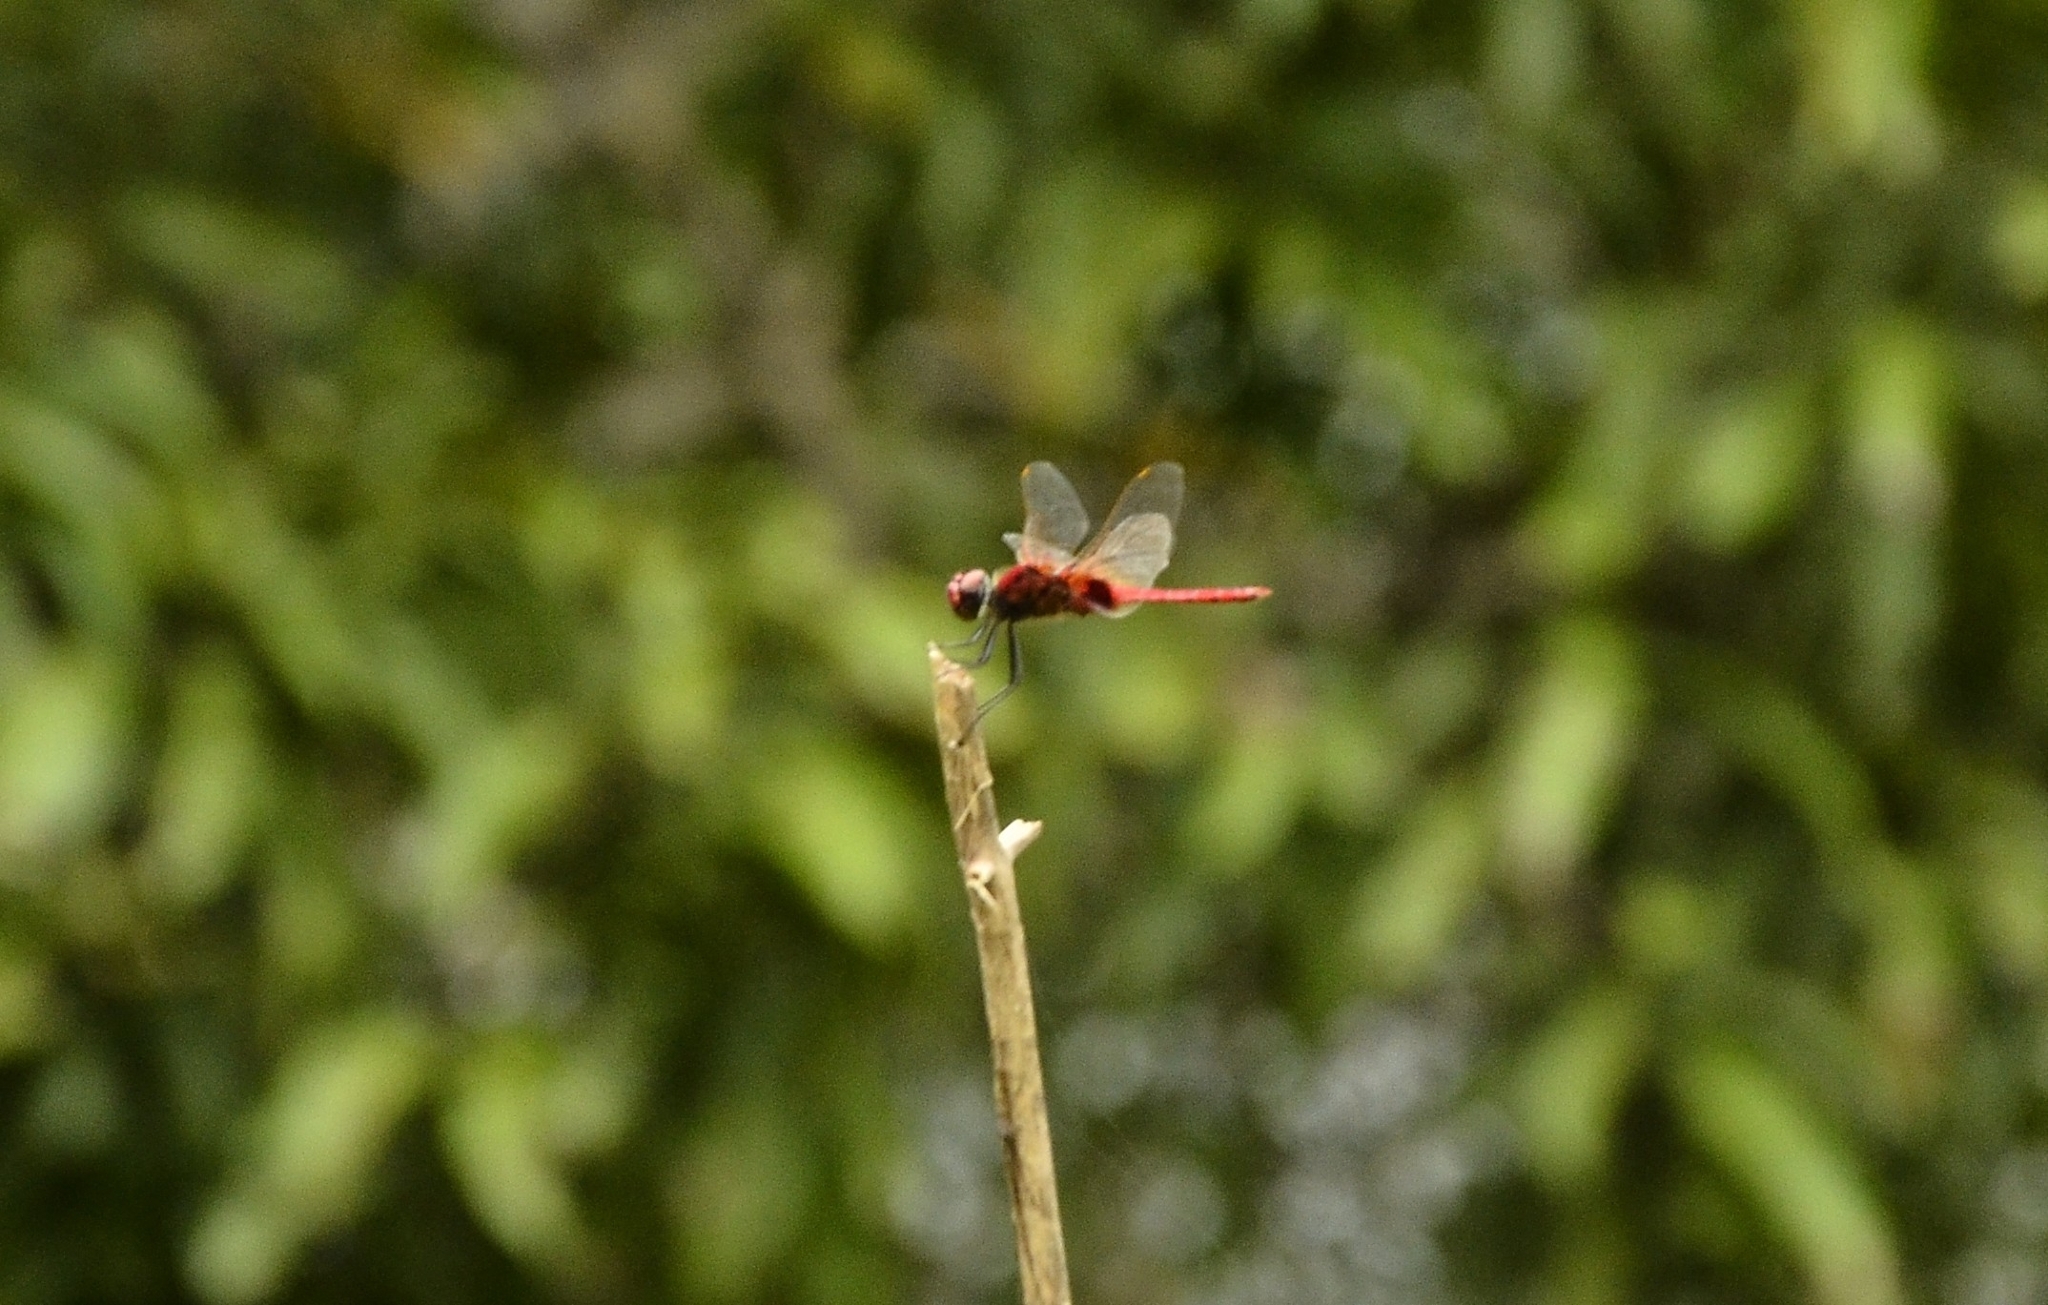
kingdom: Animalia
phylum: Arthropoda
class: Insecta
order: Odonata
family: Libellulidae
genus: Urothemis
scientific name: Urothemis signata
